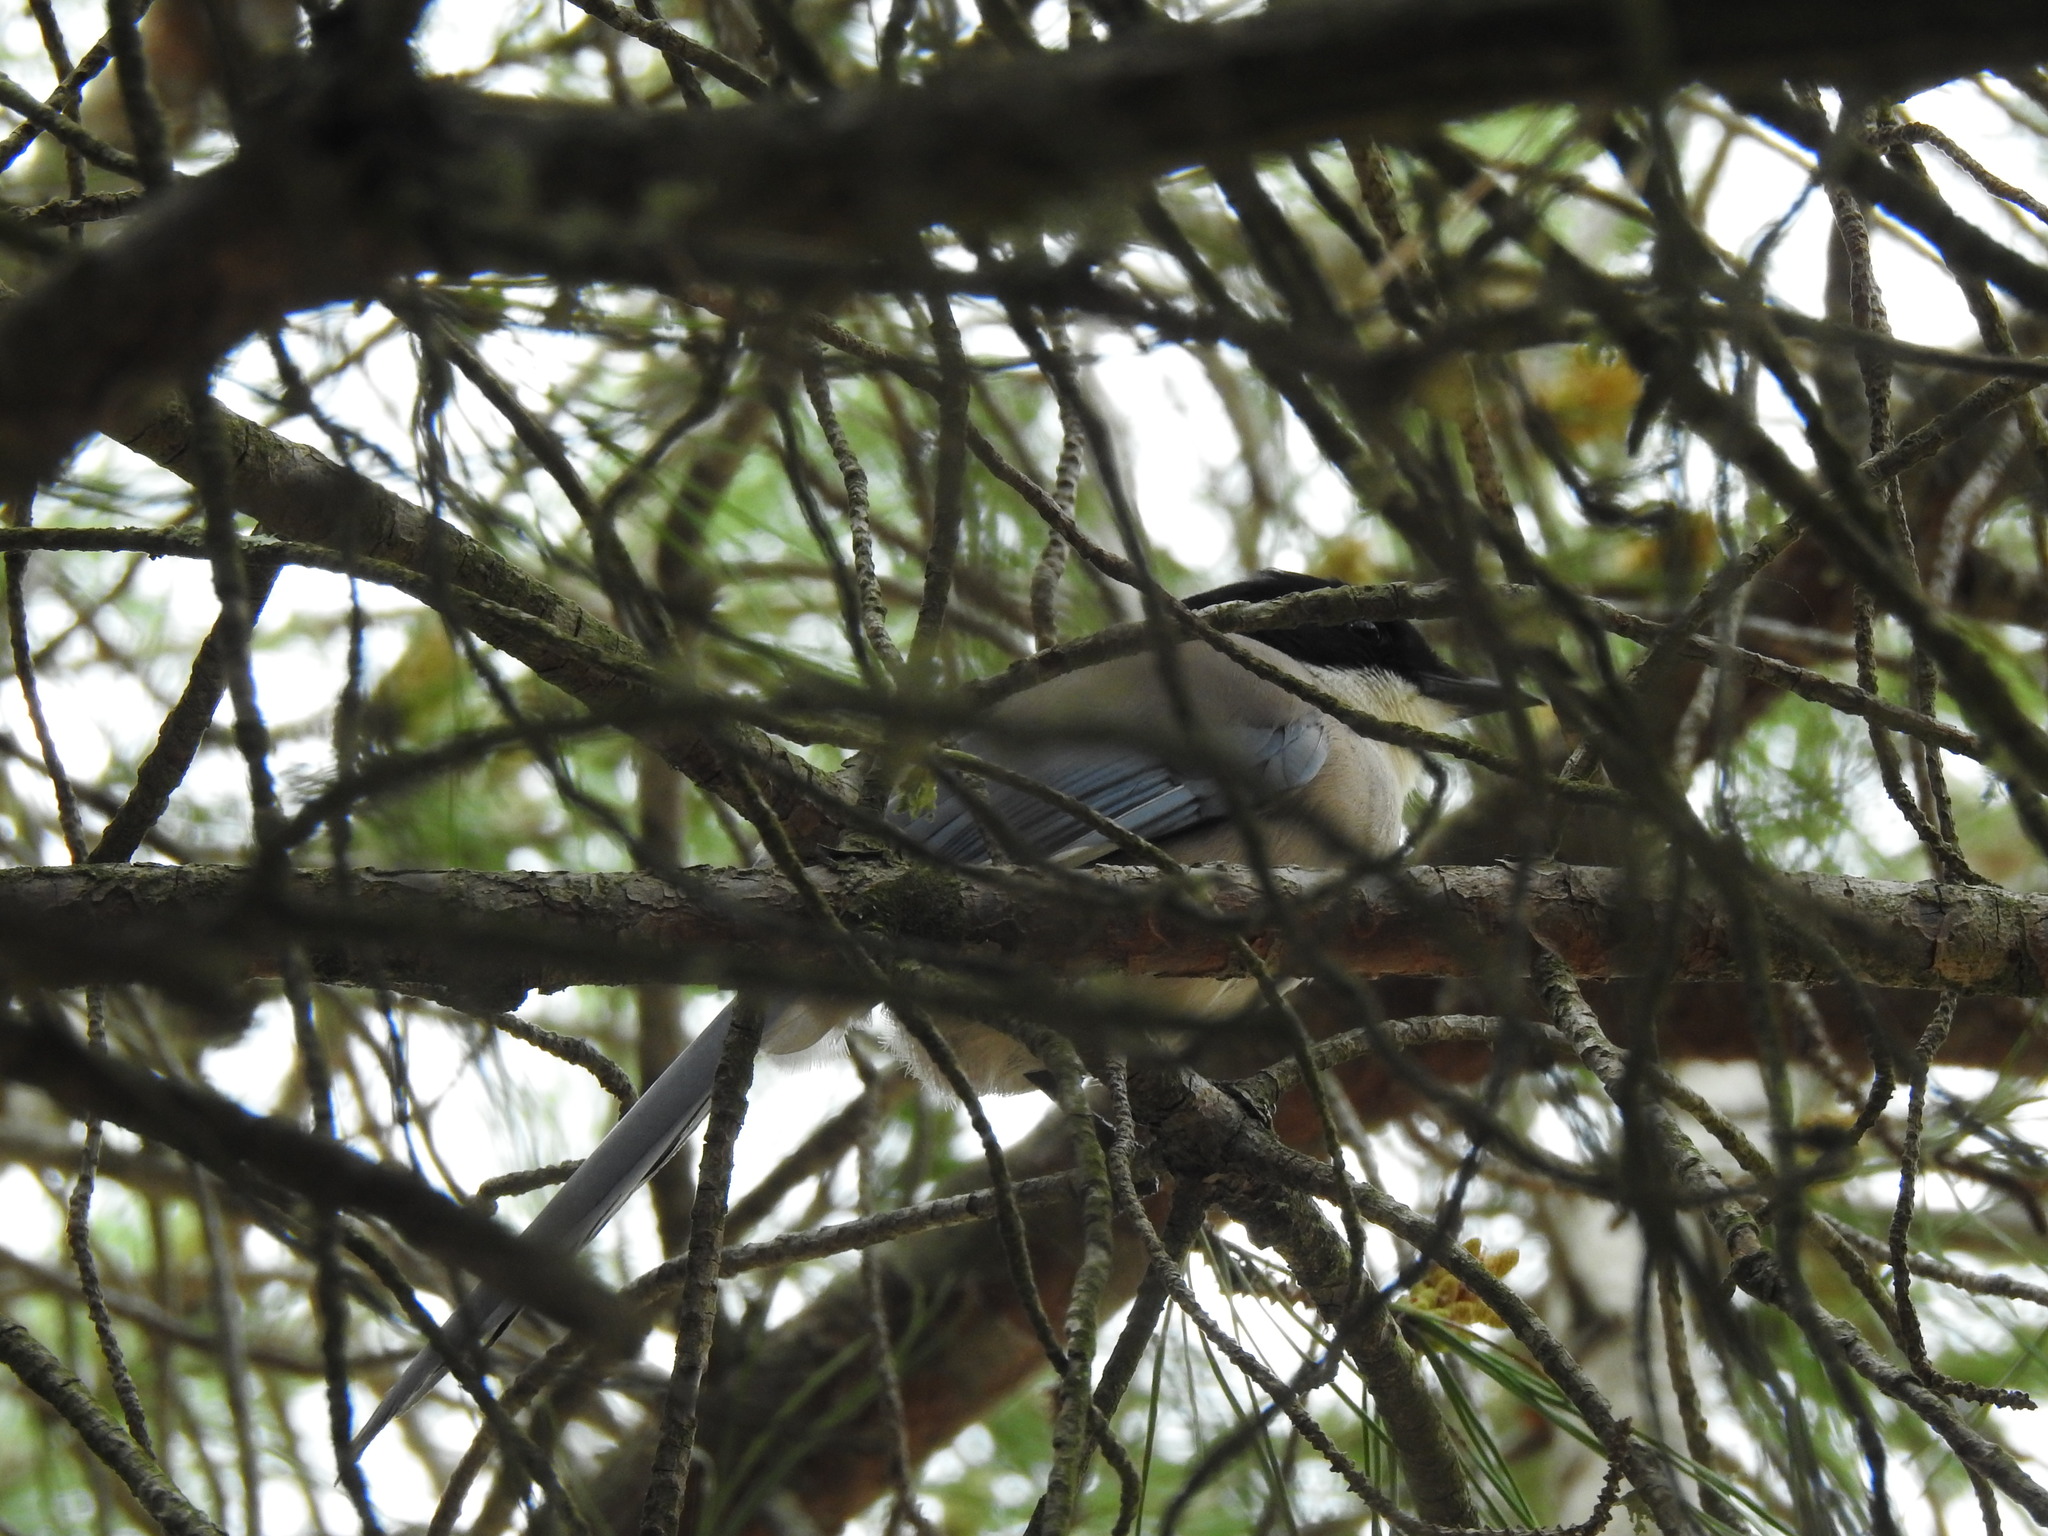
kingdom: Animalia
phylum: Chordata
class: Aves
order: Passeriformes
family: Corvidae
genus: Cyanopica
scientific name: Cyanopica cooki
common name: Iberian magpie
